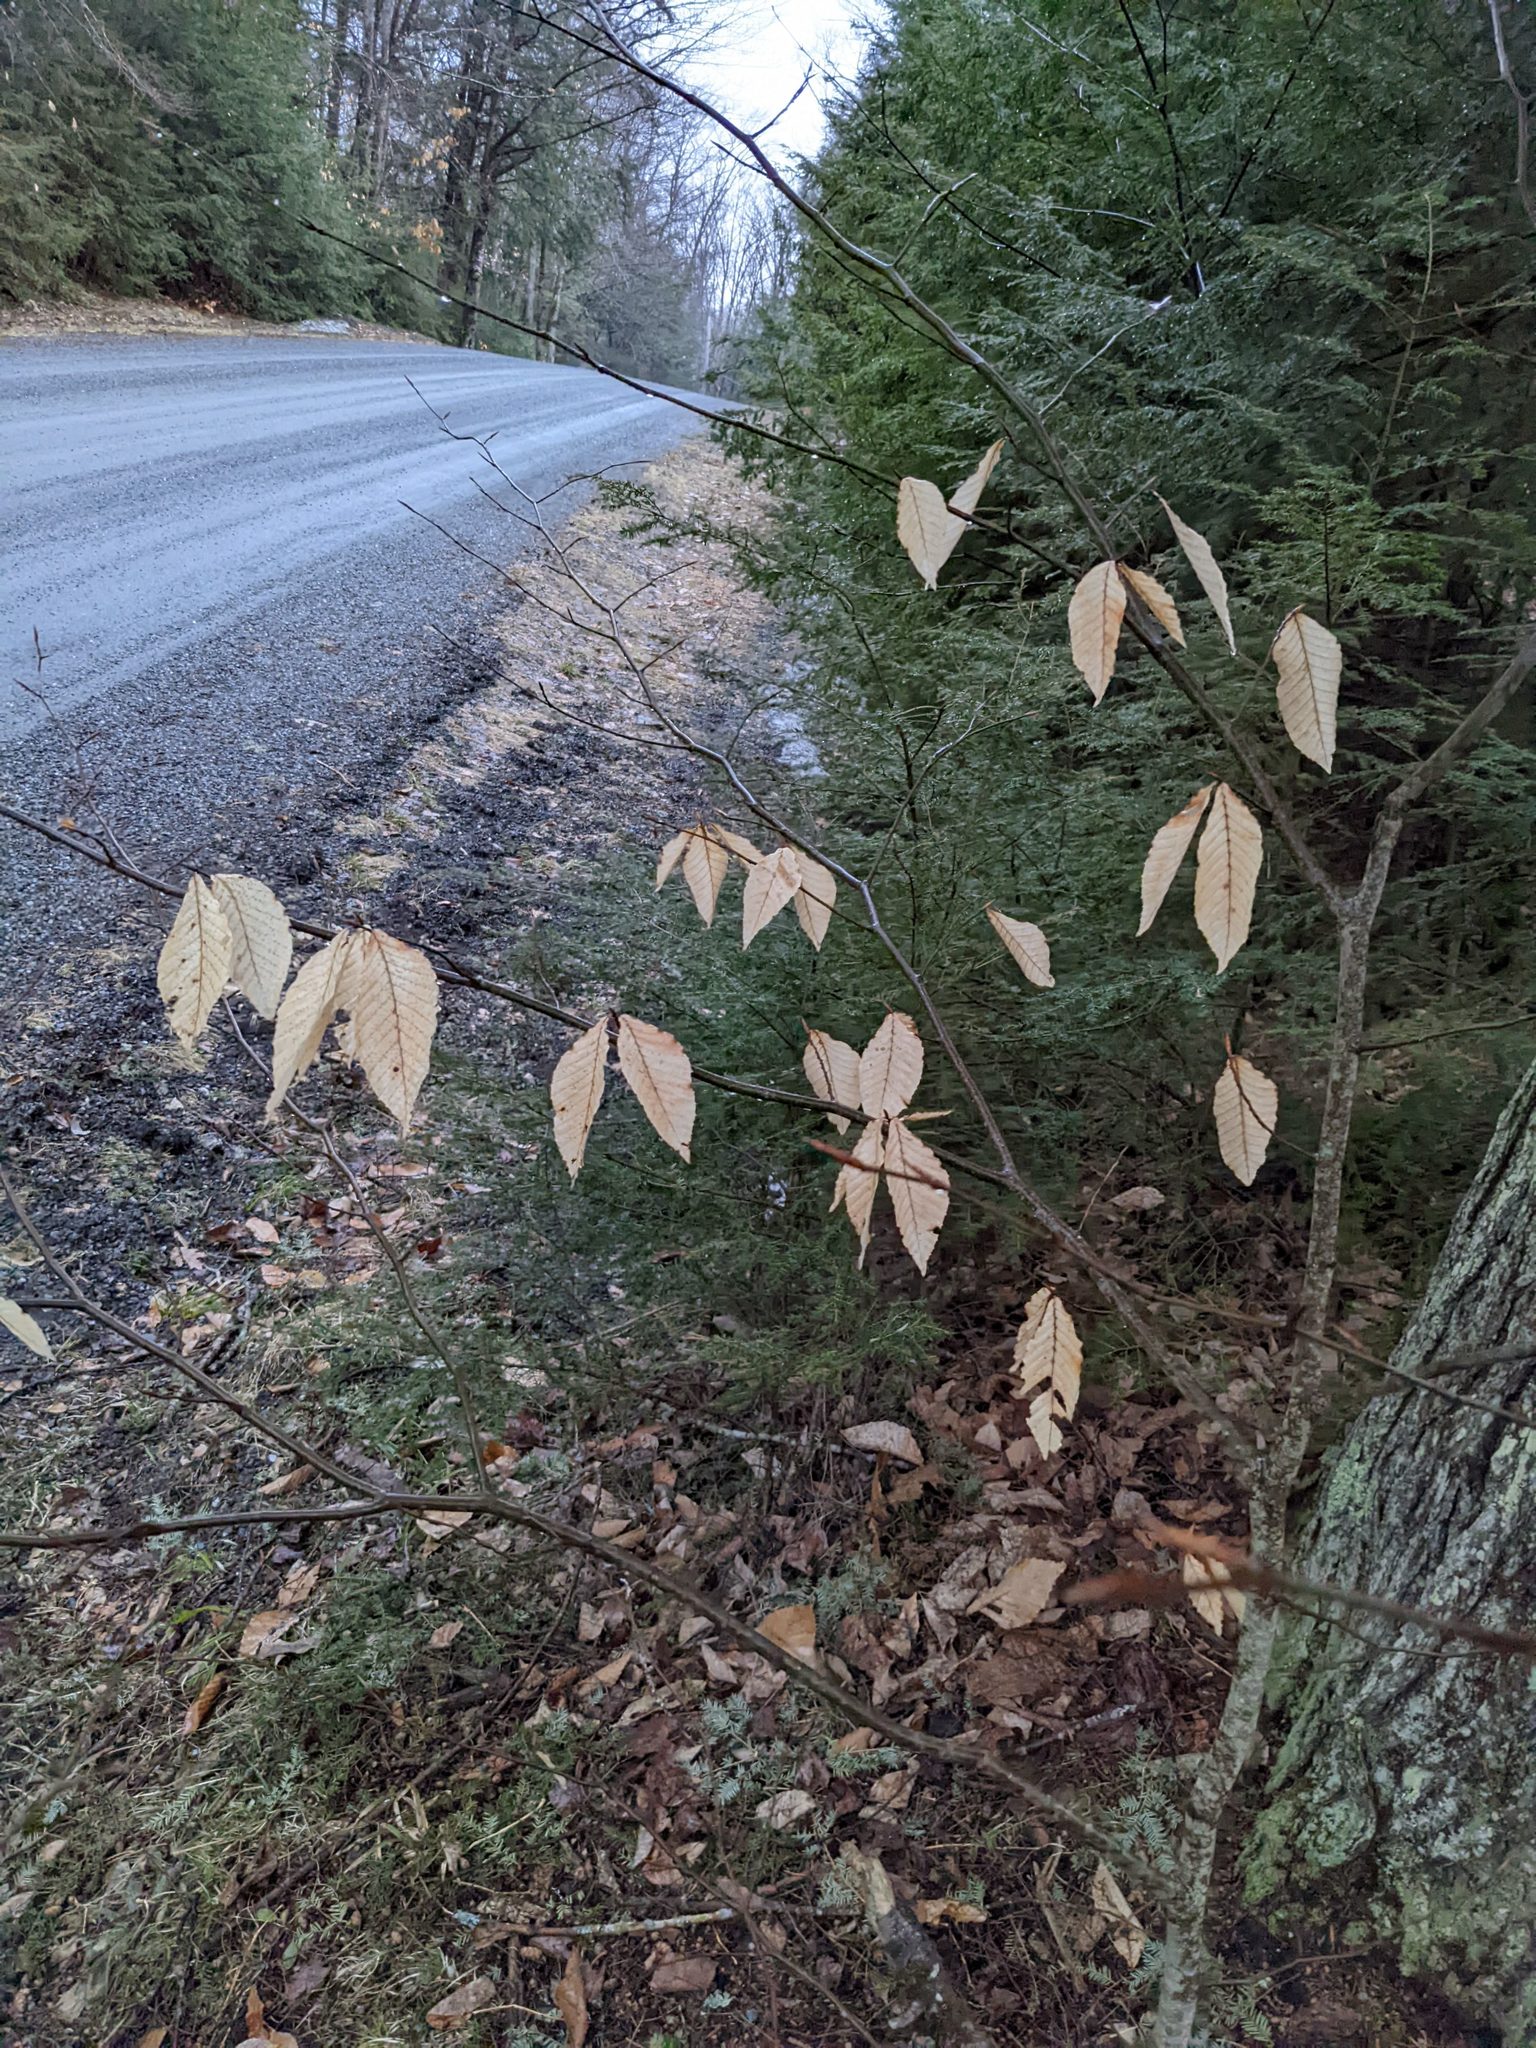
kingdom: Plantae
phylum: Tracheophyta
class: Magnoliopsida
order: Fagales
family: Fagaceae
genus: Fagus
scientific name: Fagus grandifolia
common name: American beech
